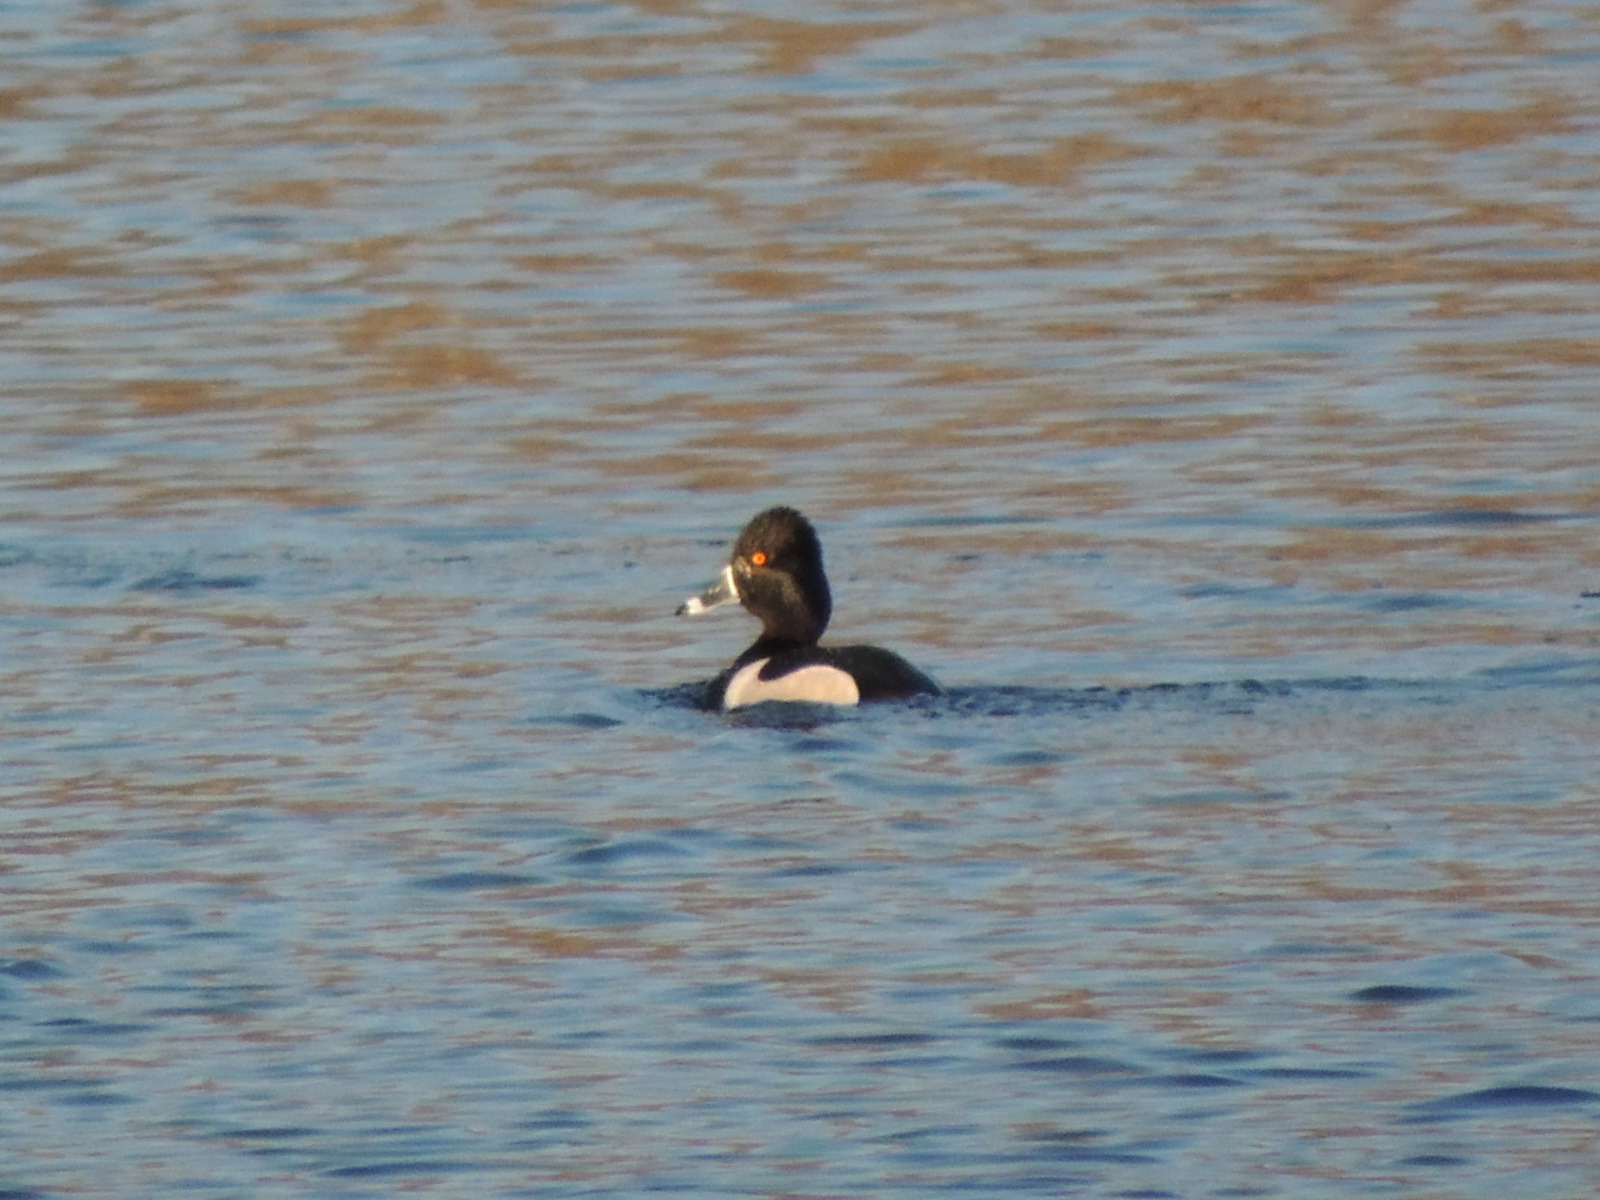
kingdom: Animalia
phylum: Chordata
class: Aves
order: Anseriformes
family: Anatidae
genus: Aythya
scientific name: Aythya collaris
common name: Ring-necked duck
